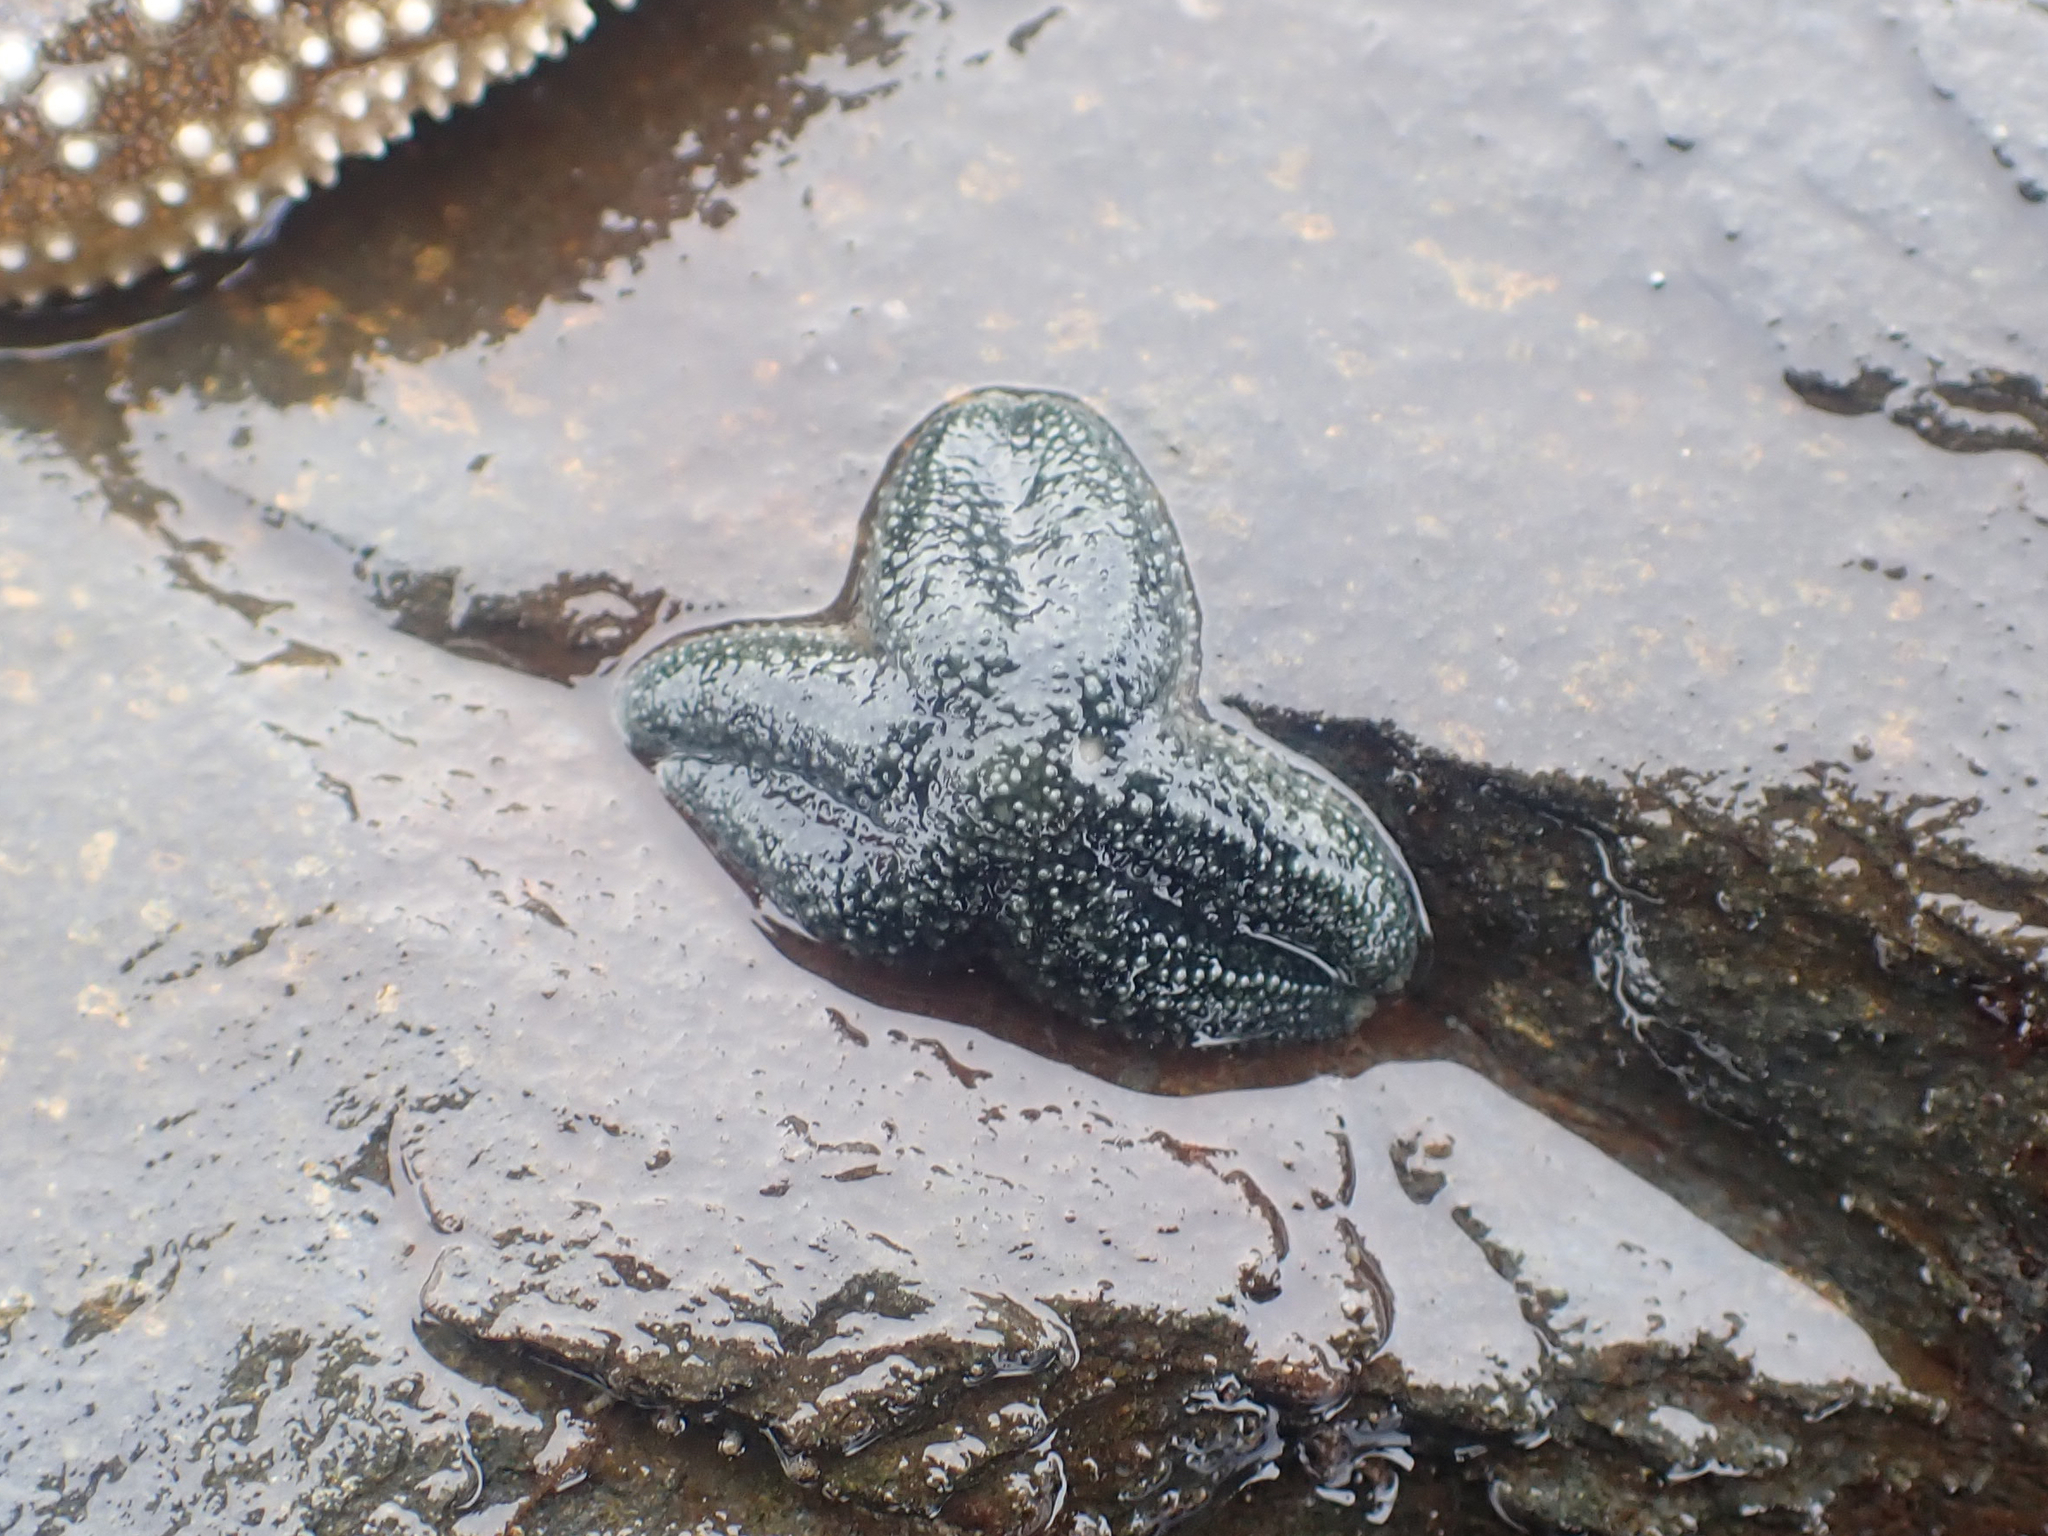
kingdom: Animalia
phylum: Echinodermata
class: Asteroidea
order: Forcipulatida
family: Asteriidae
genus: Leptasterias
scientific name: Leptasterias hexactis
